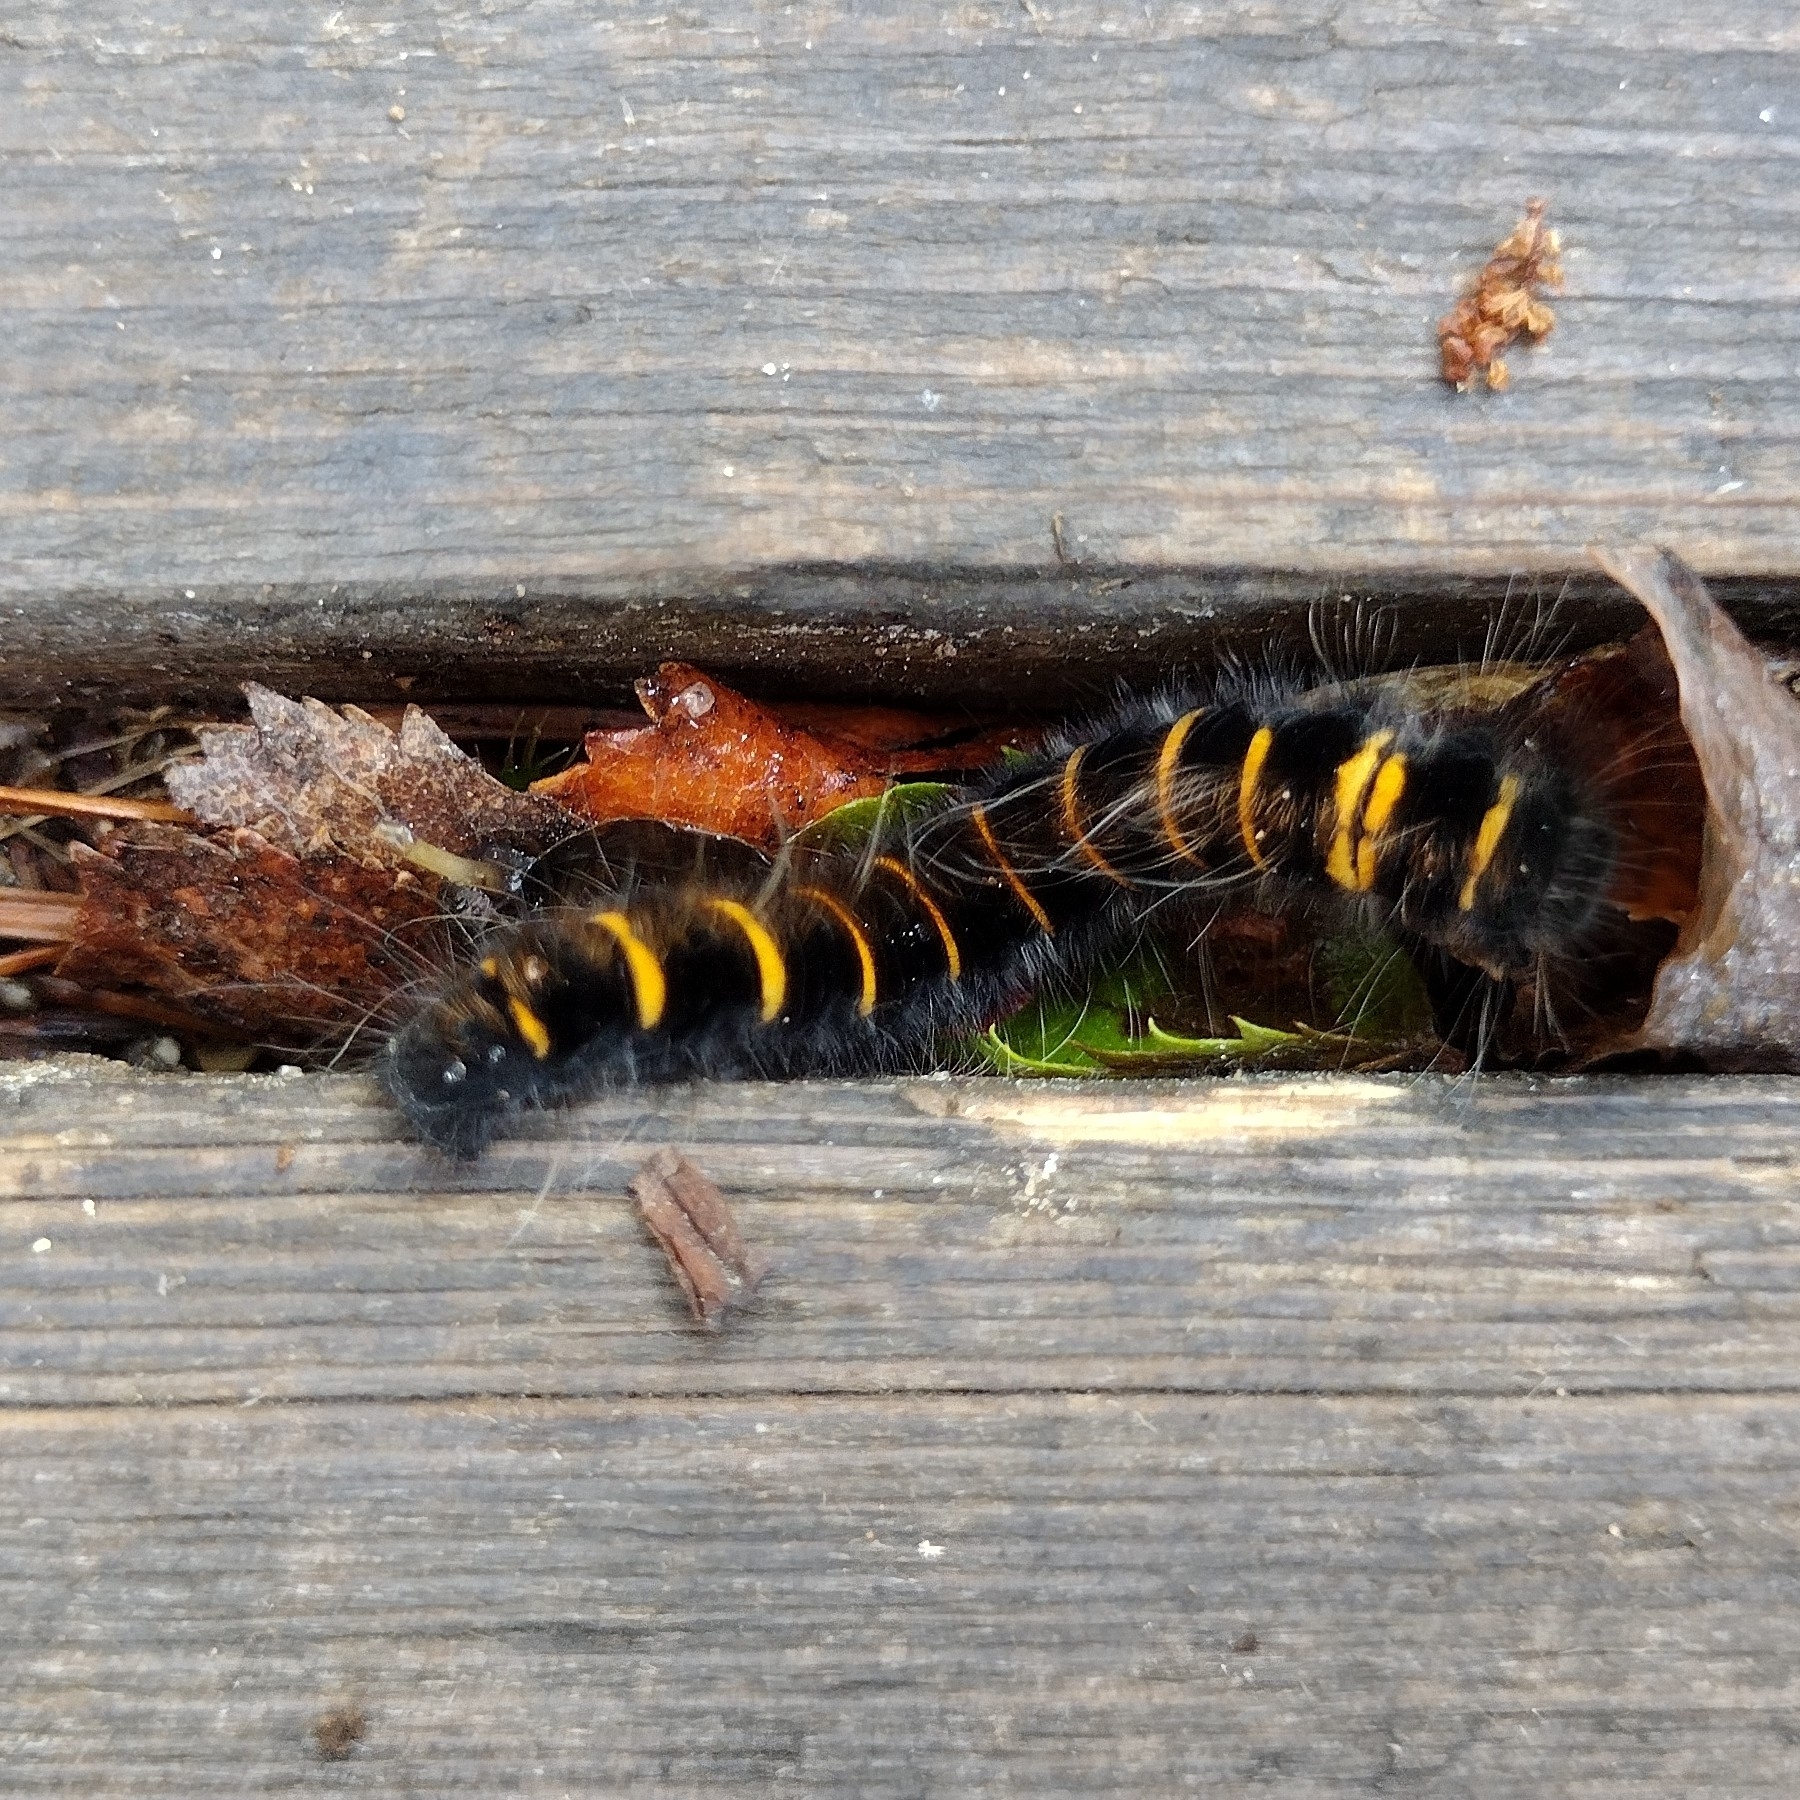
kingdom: Animalia
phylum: Arthropoda
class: Insecta
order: Lepidoptera
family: Lasiocampidae
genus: Macrothylacia
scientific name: Macrothylacia rubi
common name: Fox moth
